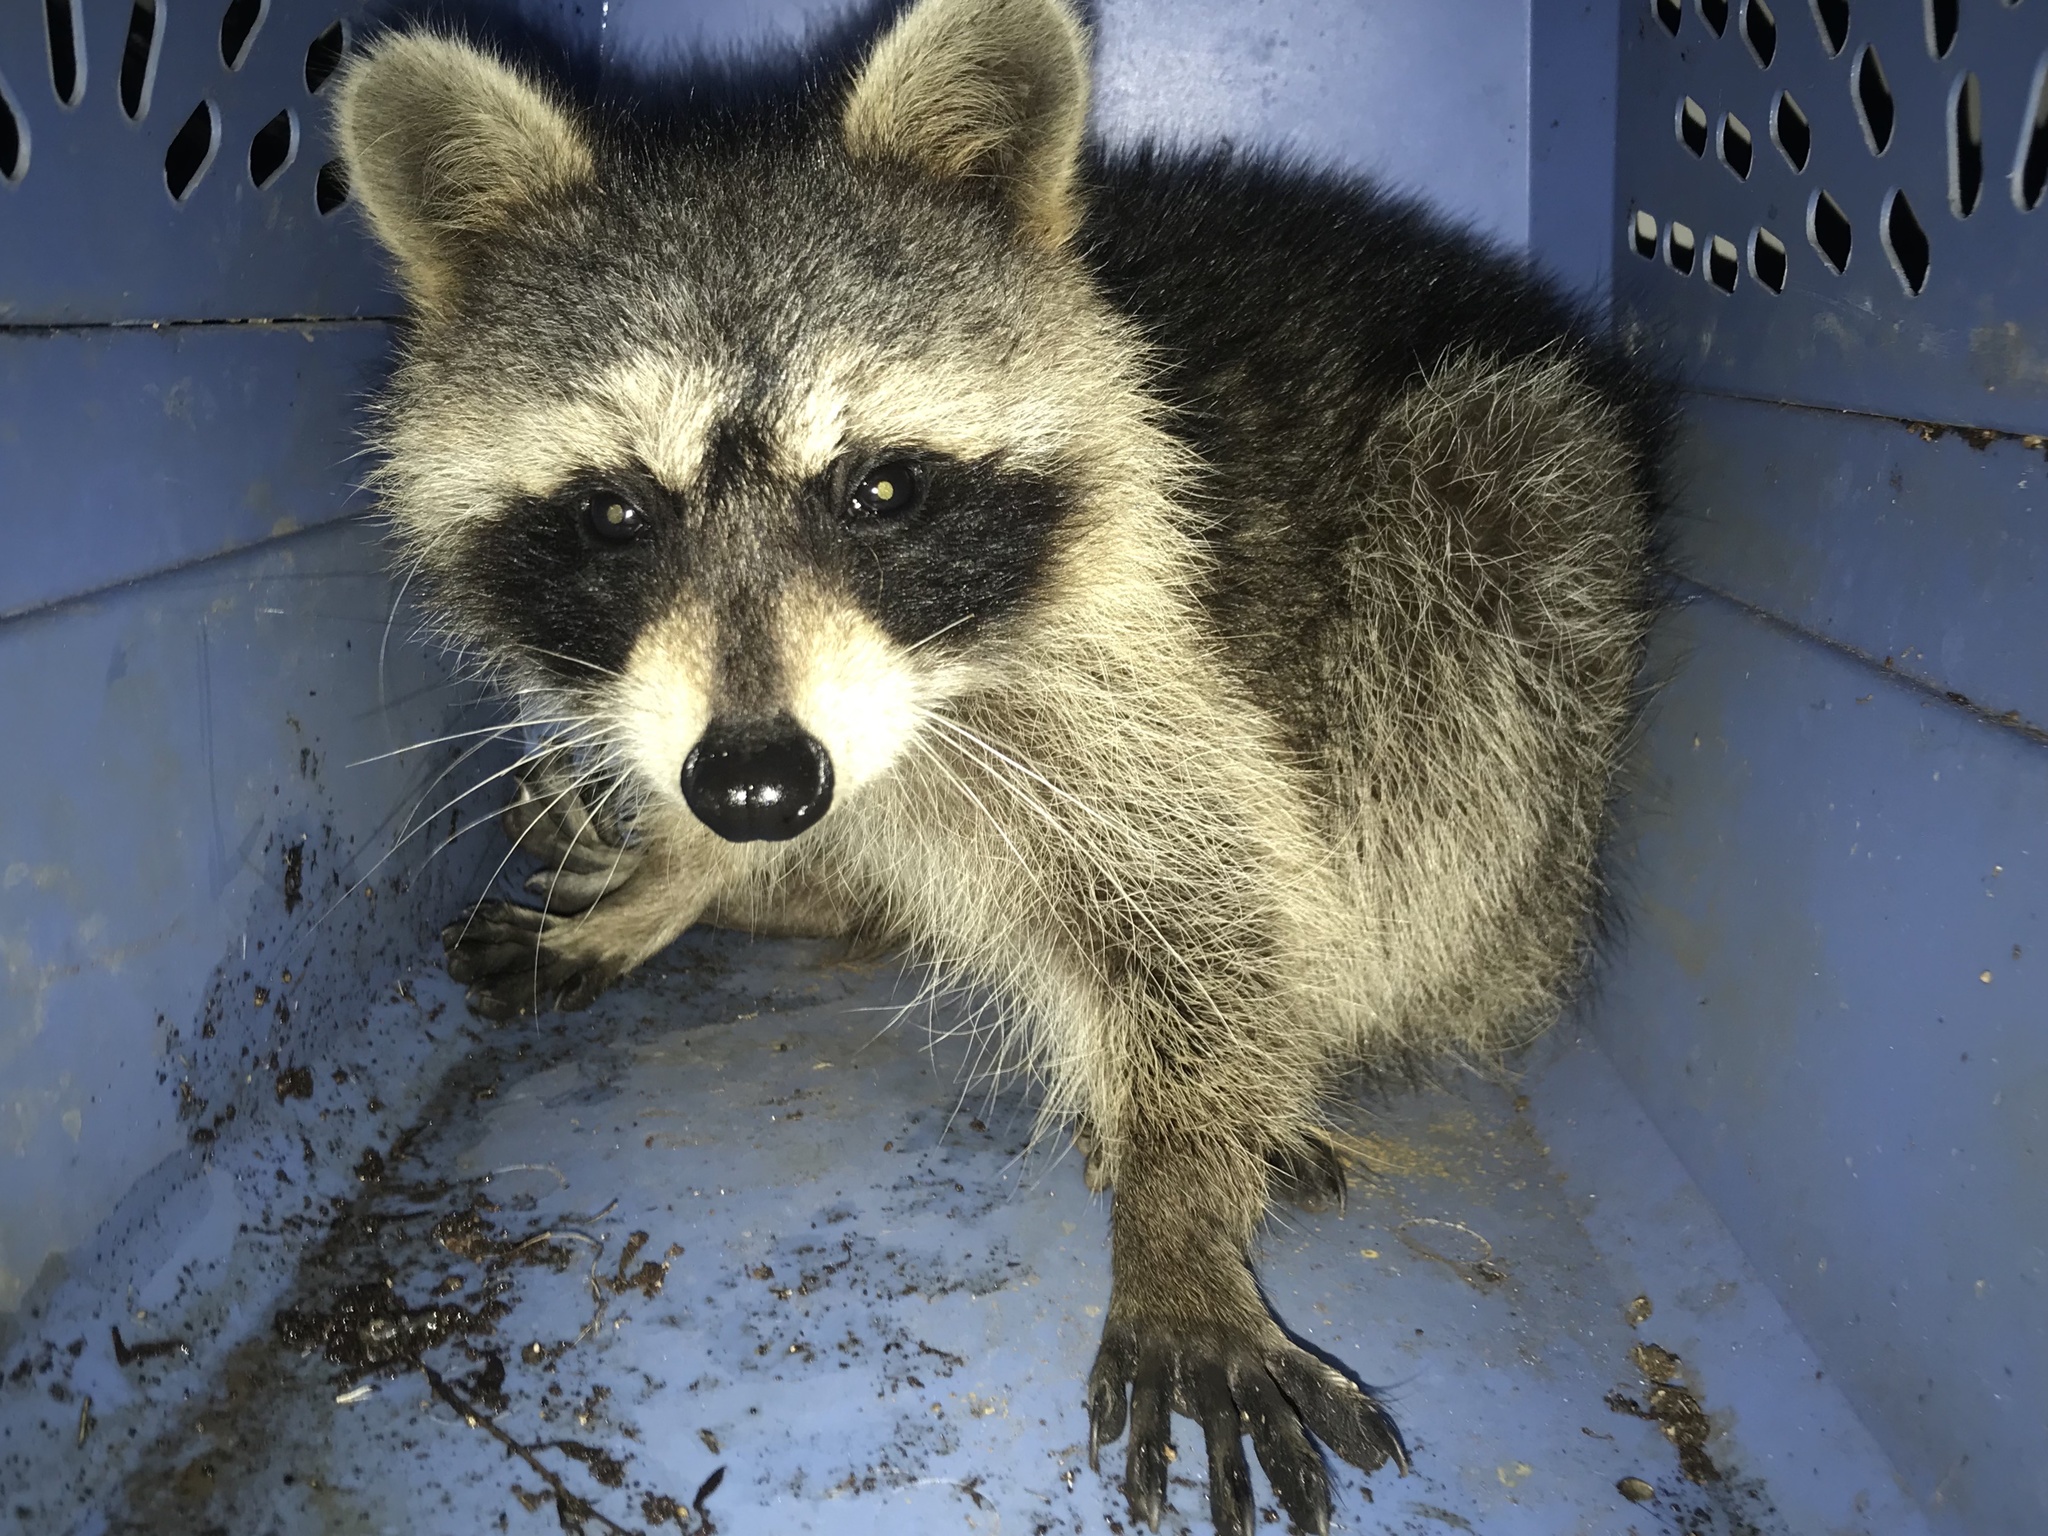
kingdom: Animalia
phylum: Chordata
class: Mammalia
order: Carnivora
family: Procyonidae
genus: Procyon
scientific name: Procyon lotor
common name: Raccoon
